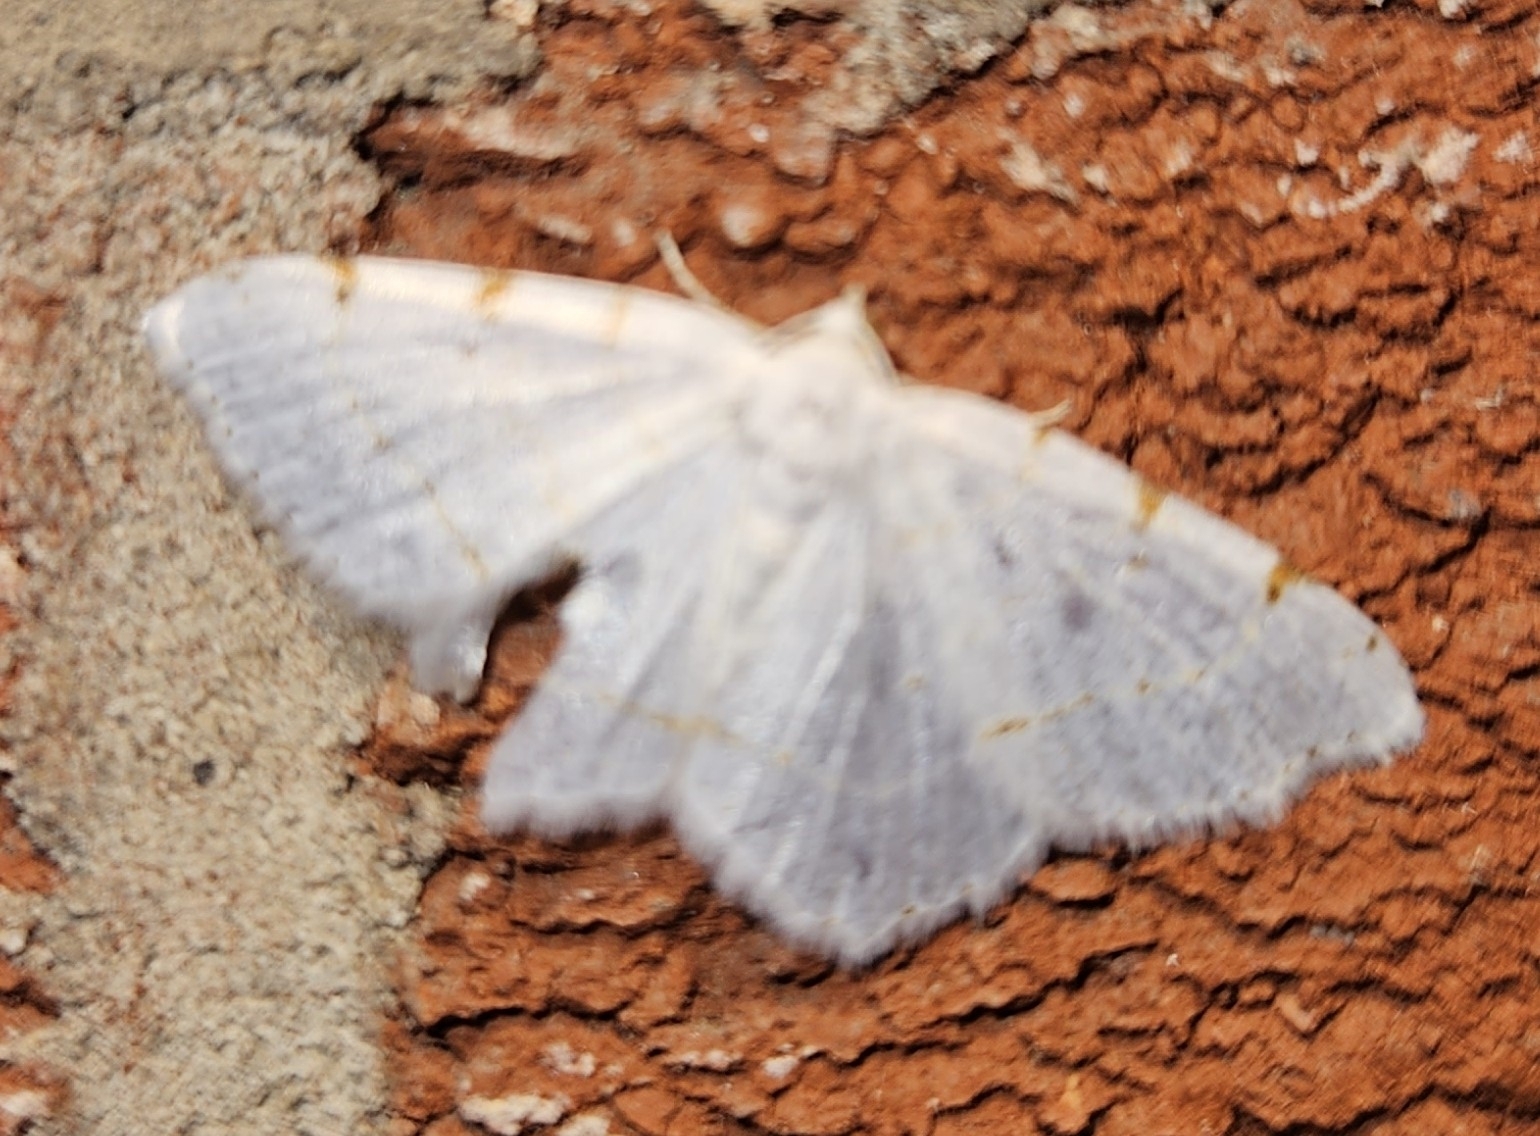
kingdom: Animalia
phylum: Arthropoda
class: Insecta
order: Lepidoptera
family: Geometridae
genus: Macaria
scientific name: Macaria pustularia
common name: Lesser maple spanworm moth
